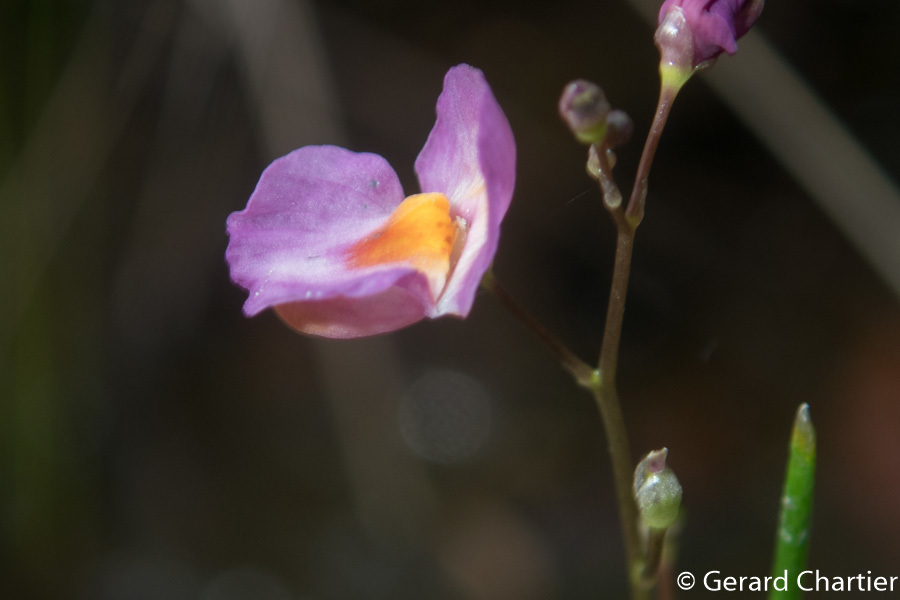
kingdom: Plantae
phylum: Tracheophyta
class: Magnoliopsida
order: Lamiales
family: Lentibulariaceae
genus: Utricularia
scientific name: Utricularia punctata
